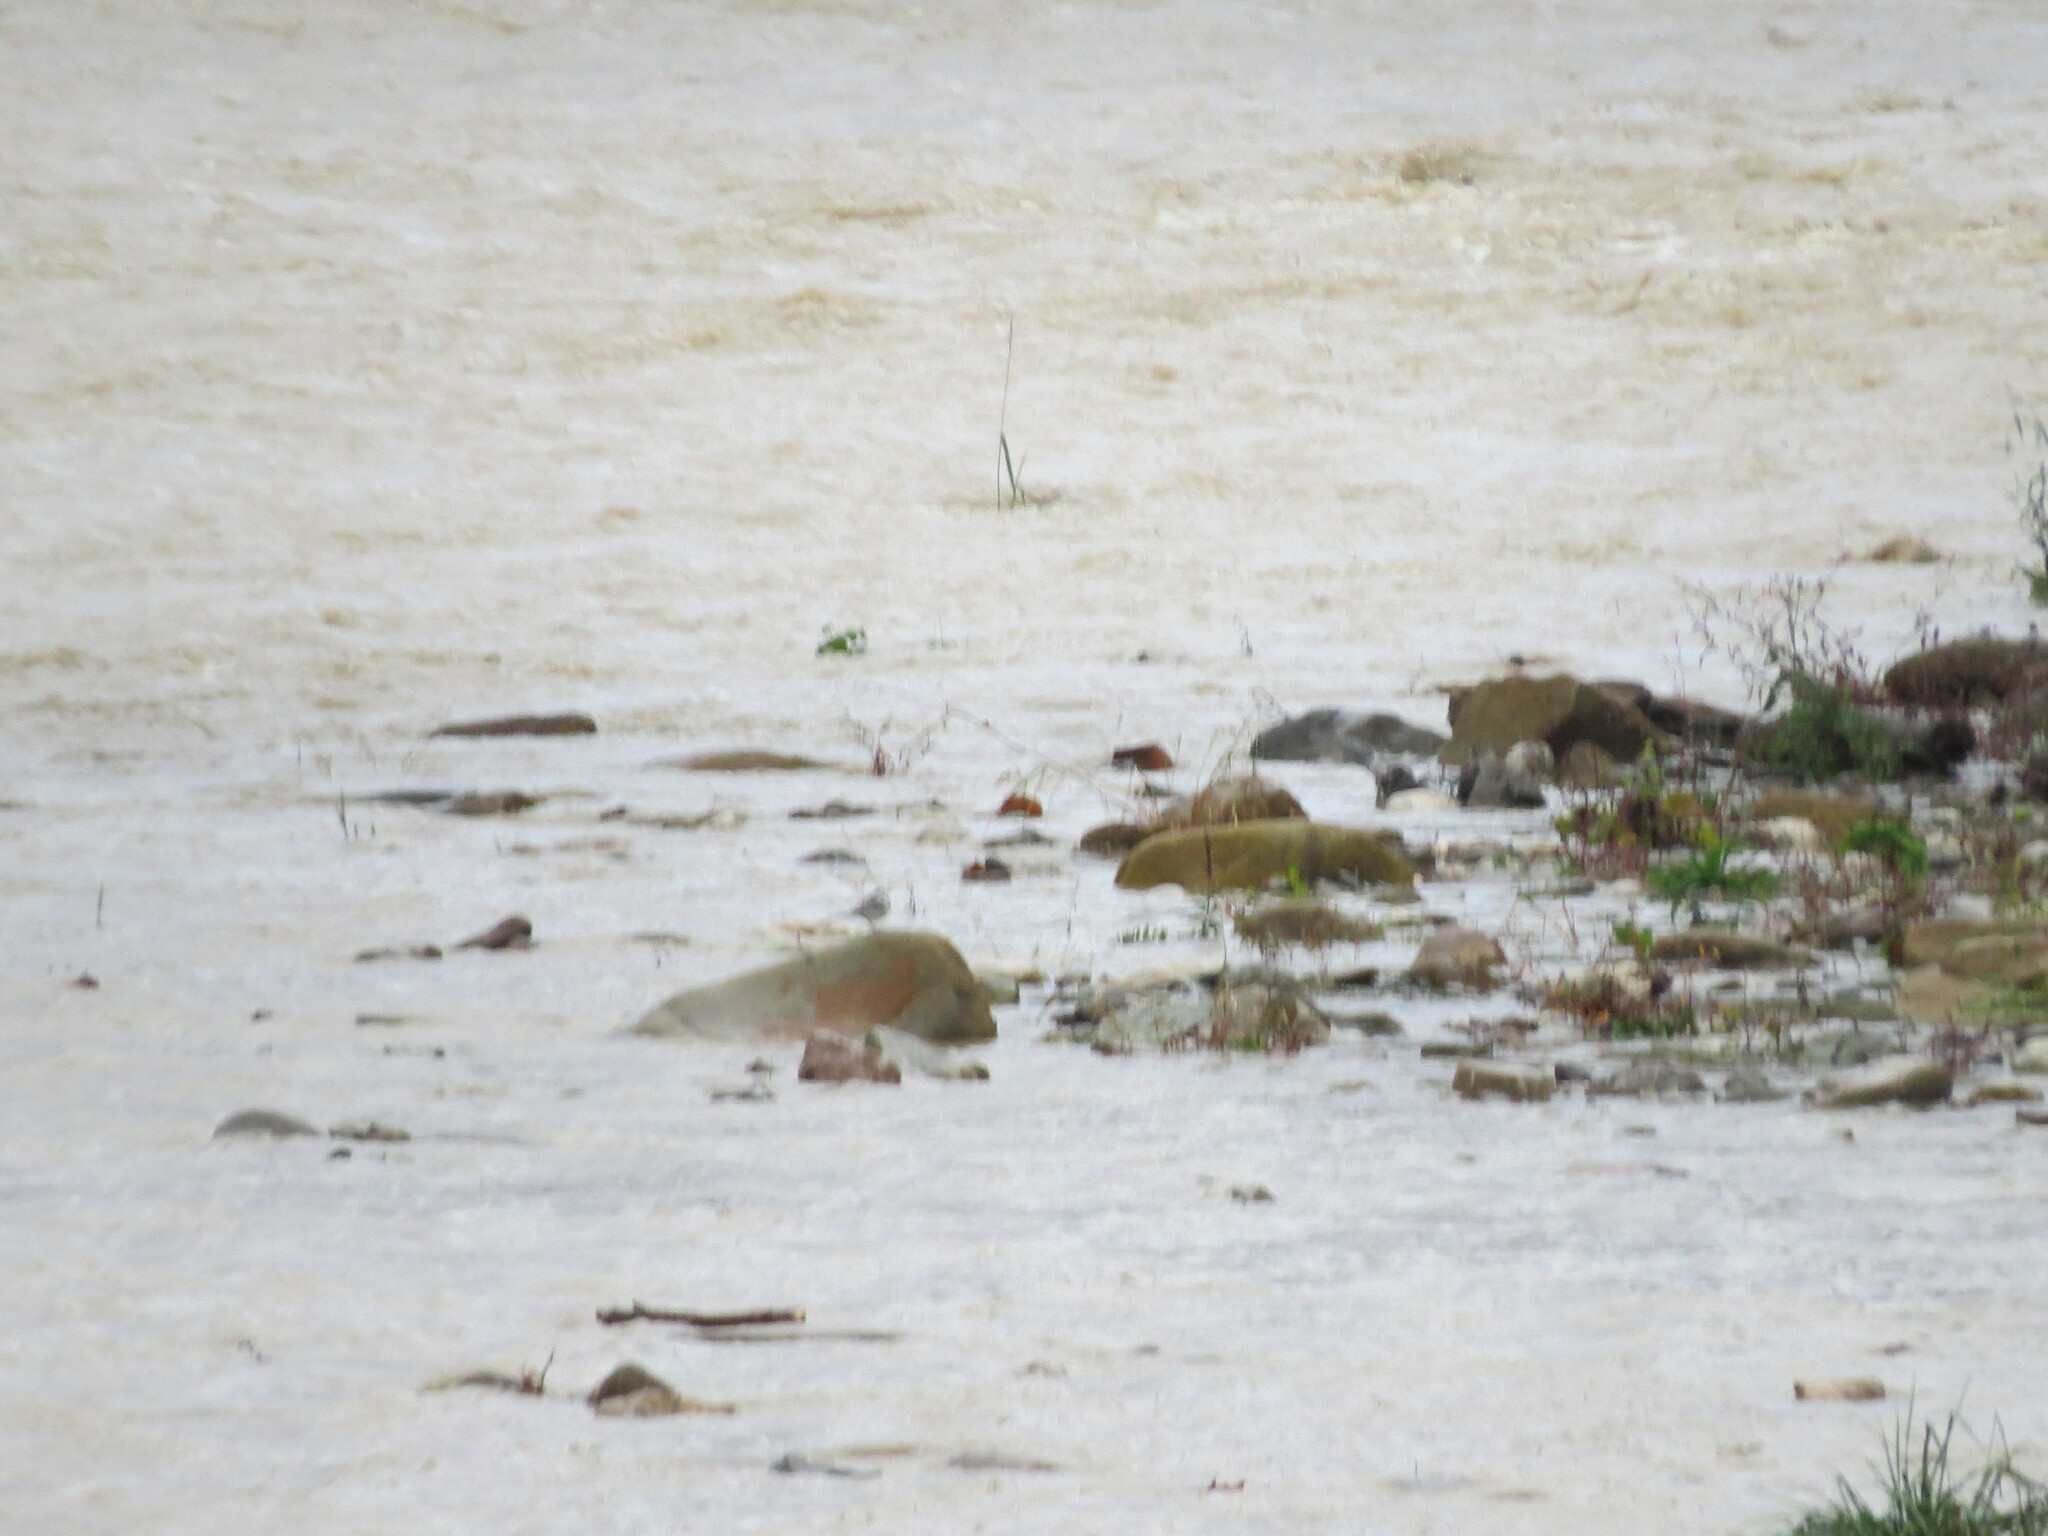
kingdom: Animalia
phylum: Chordata
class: Aves
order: Passeriformes
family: Motacillidae
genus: Motacilla
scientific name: Motacilla alba
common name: White wagtail
